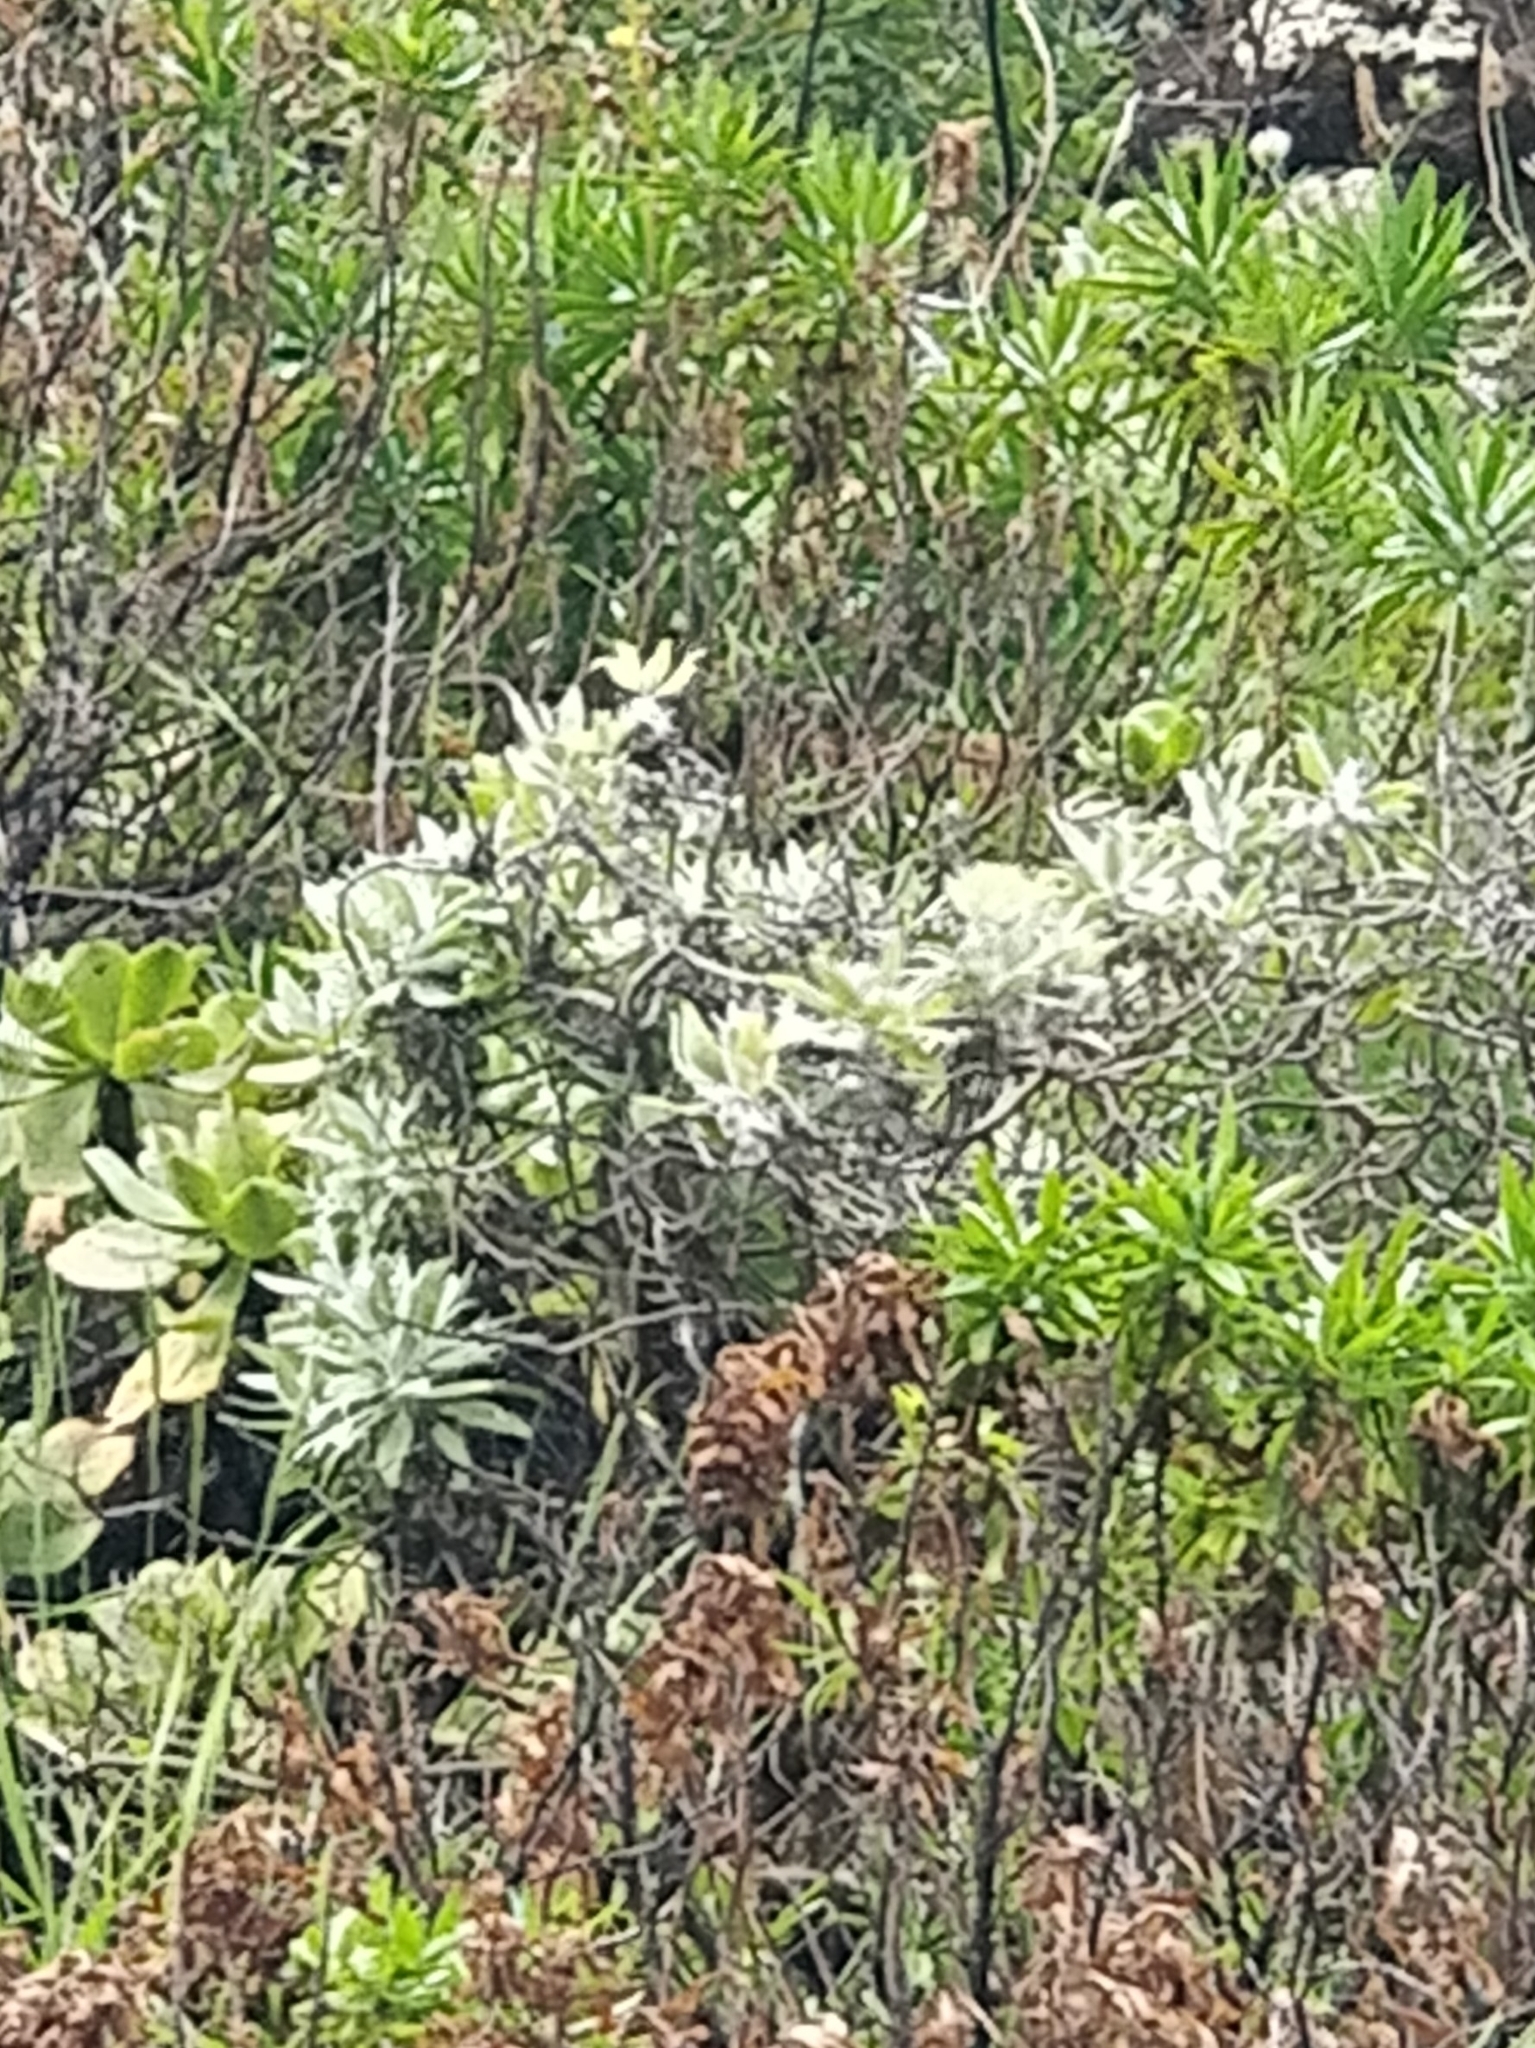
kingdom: Plantae
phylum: Tracheophyta
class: Magnoliopsida
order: Asterales
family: Asteraceae
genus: Helichrysum
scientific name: Helichrysum melaleucum
